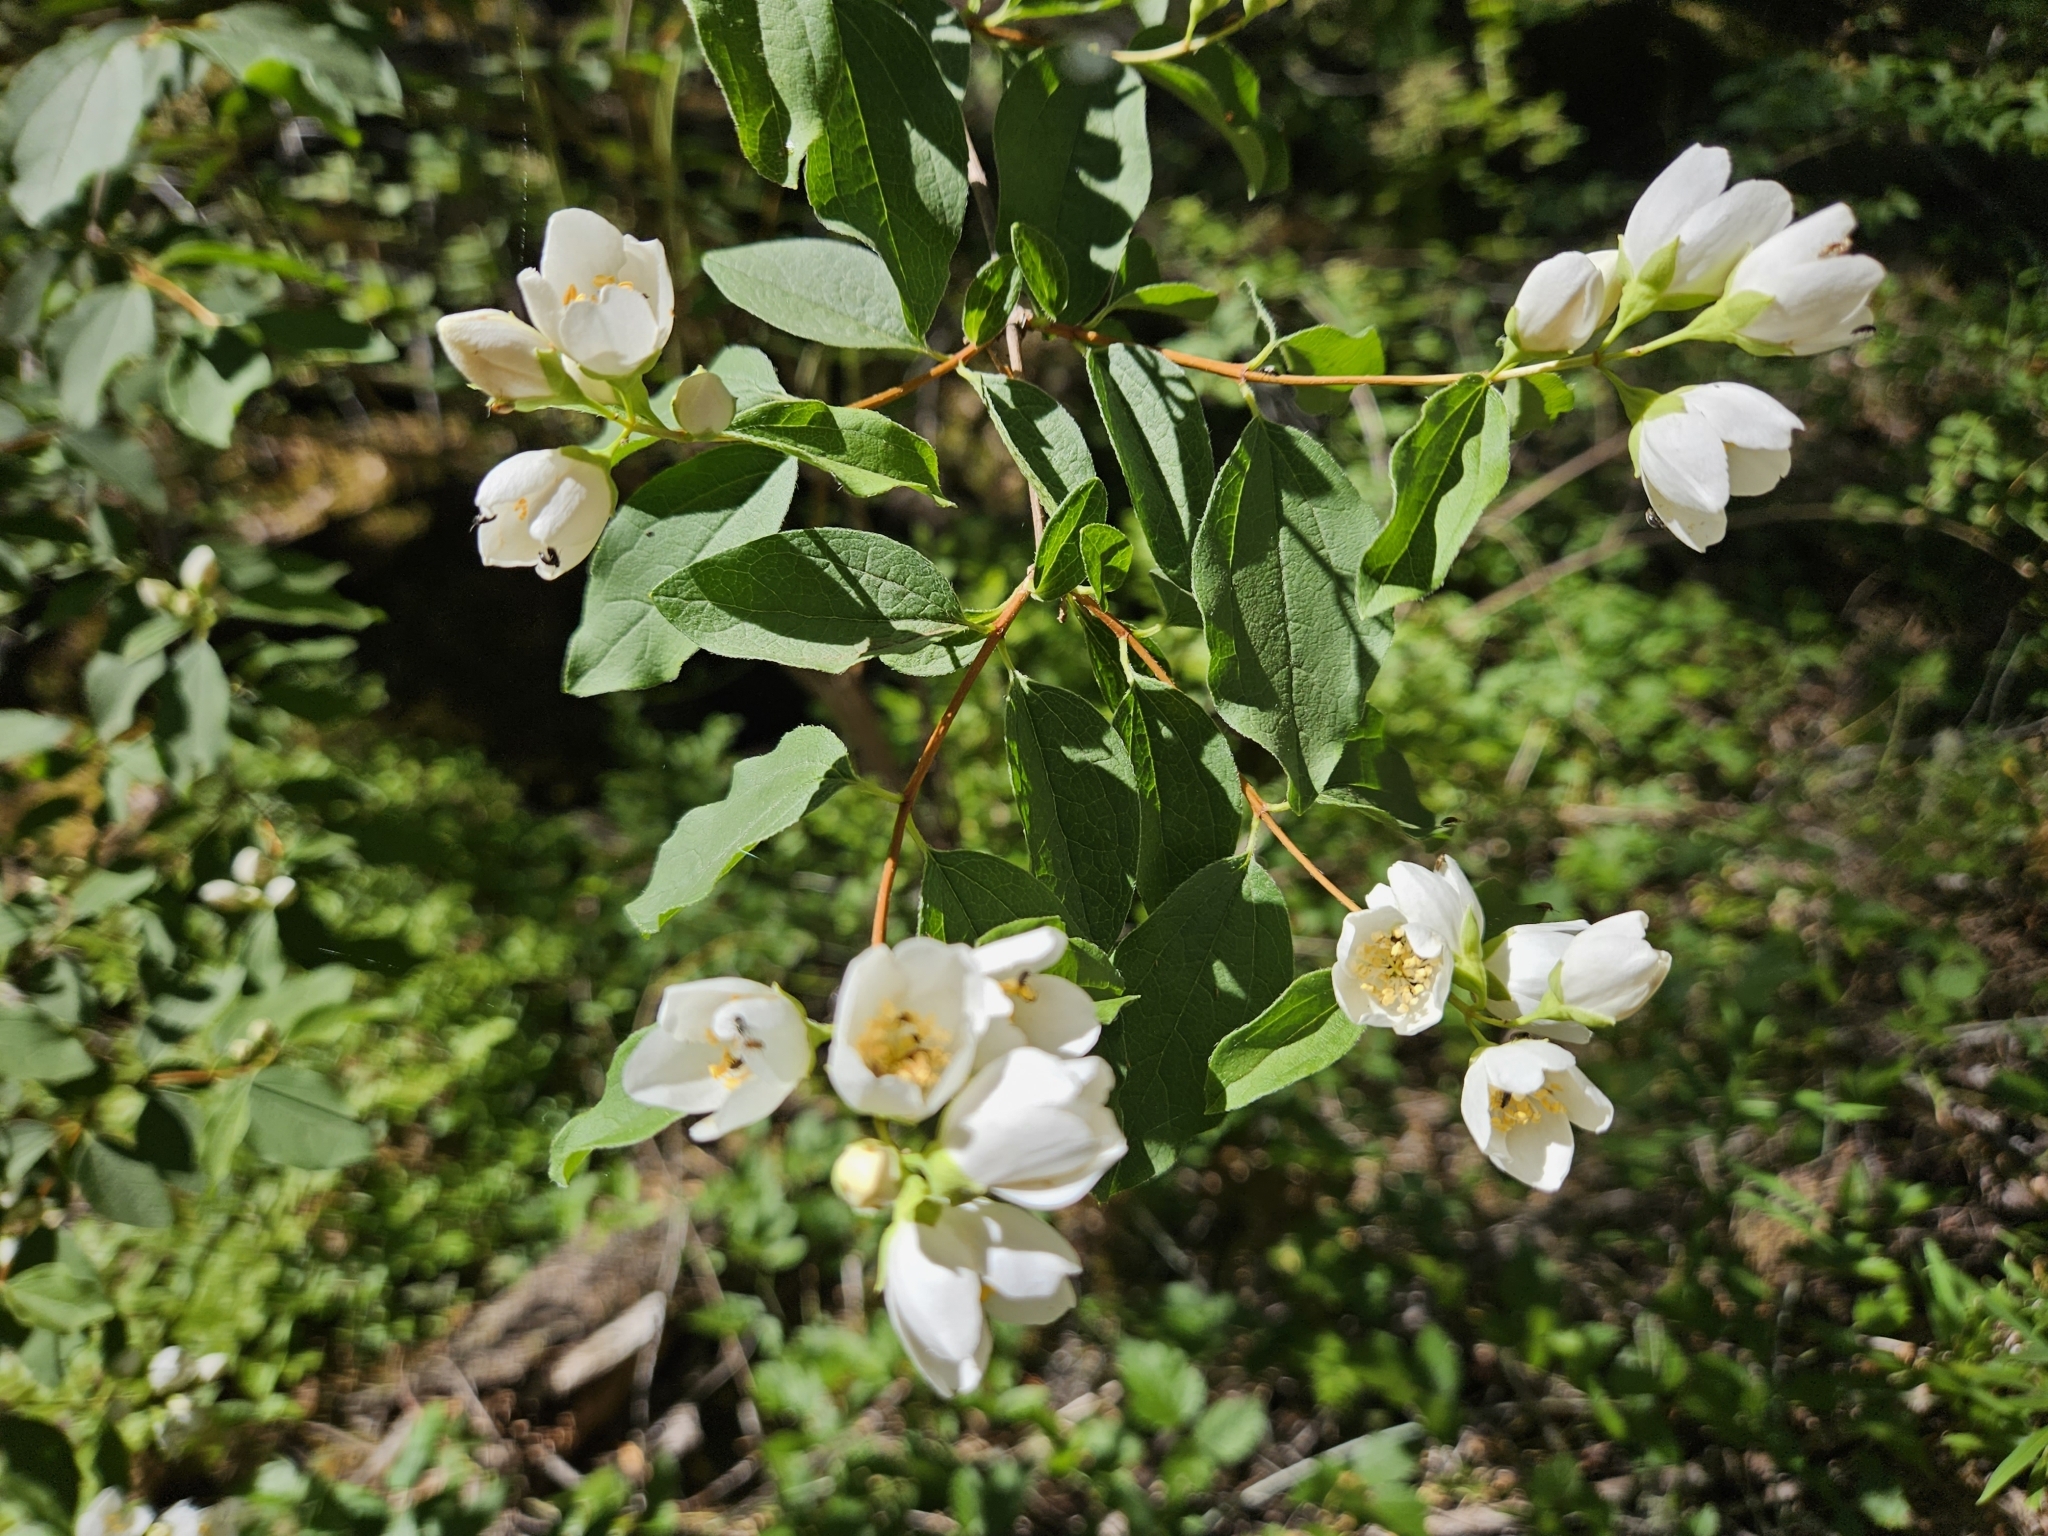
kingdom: Plantae
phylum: Tracheophyta
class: Magnoliopsida
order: Cornales
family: Hydrangeaceae
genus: Philadelphus
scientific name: Philadelphus lewisii
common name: Lewis's mock orange
